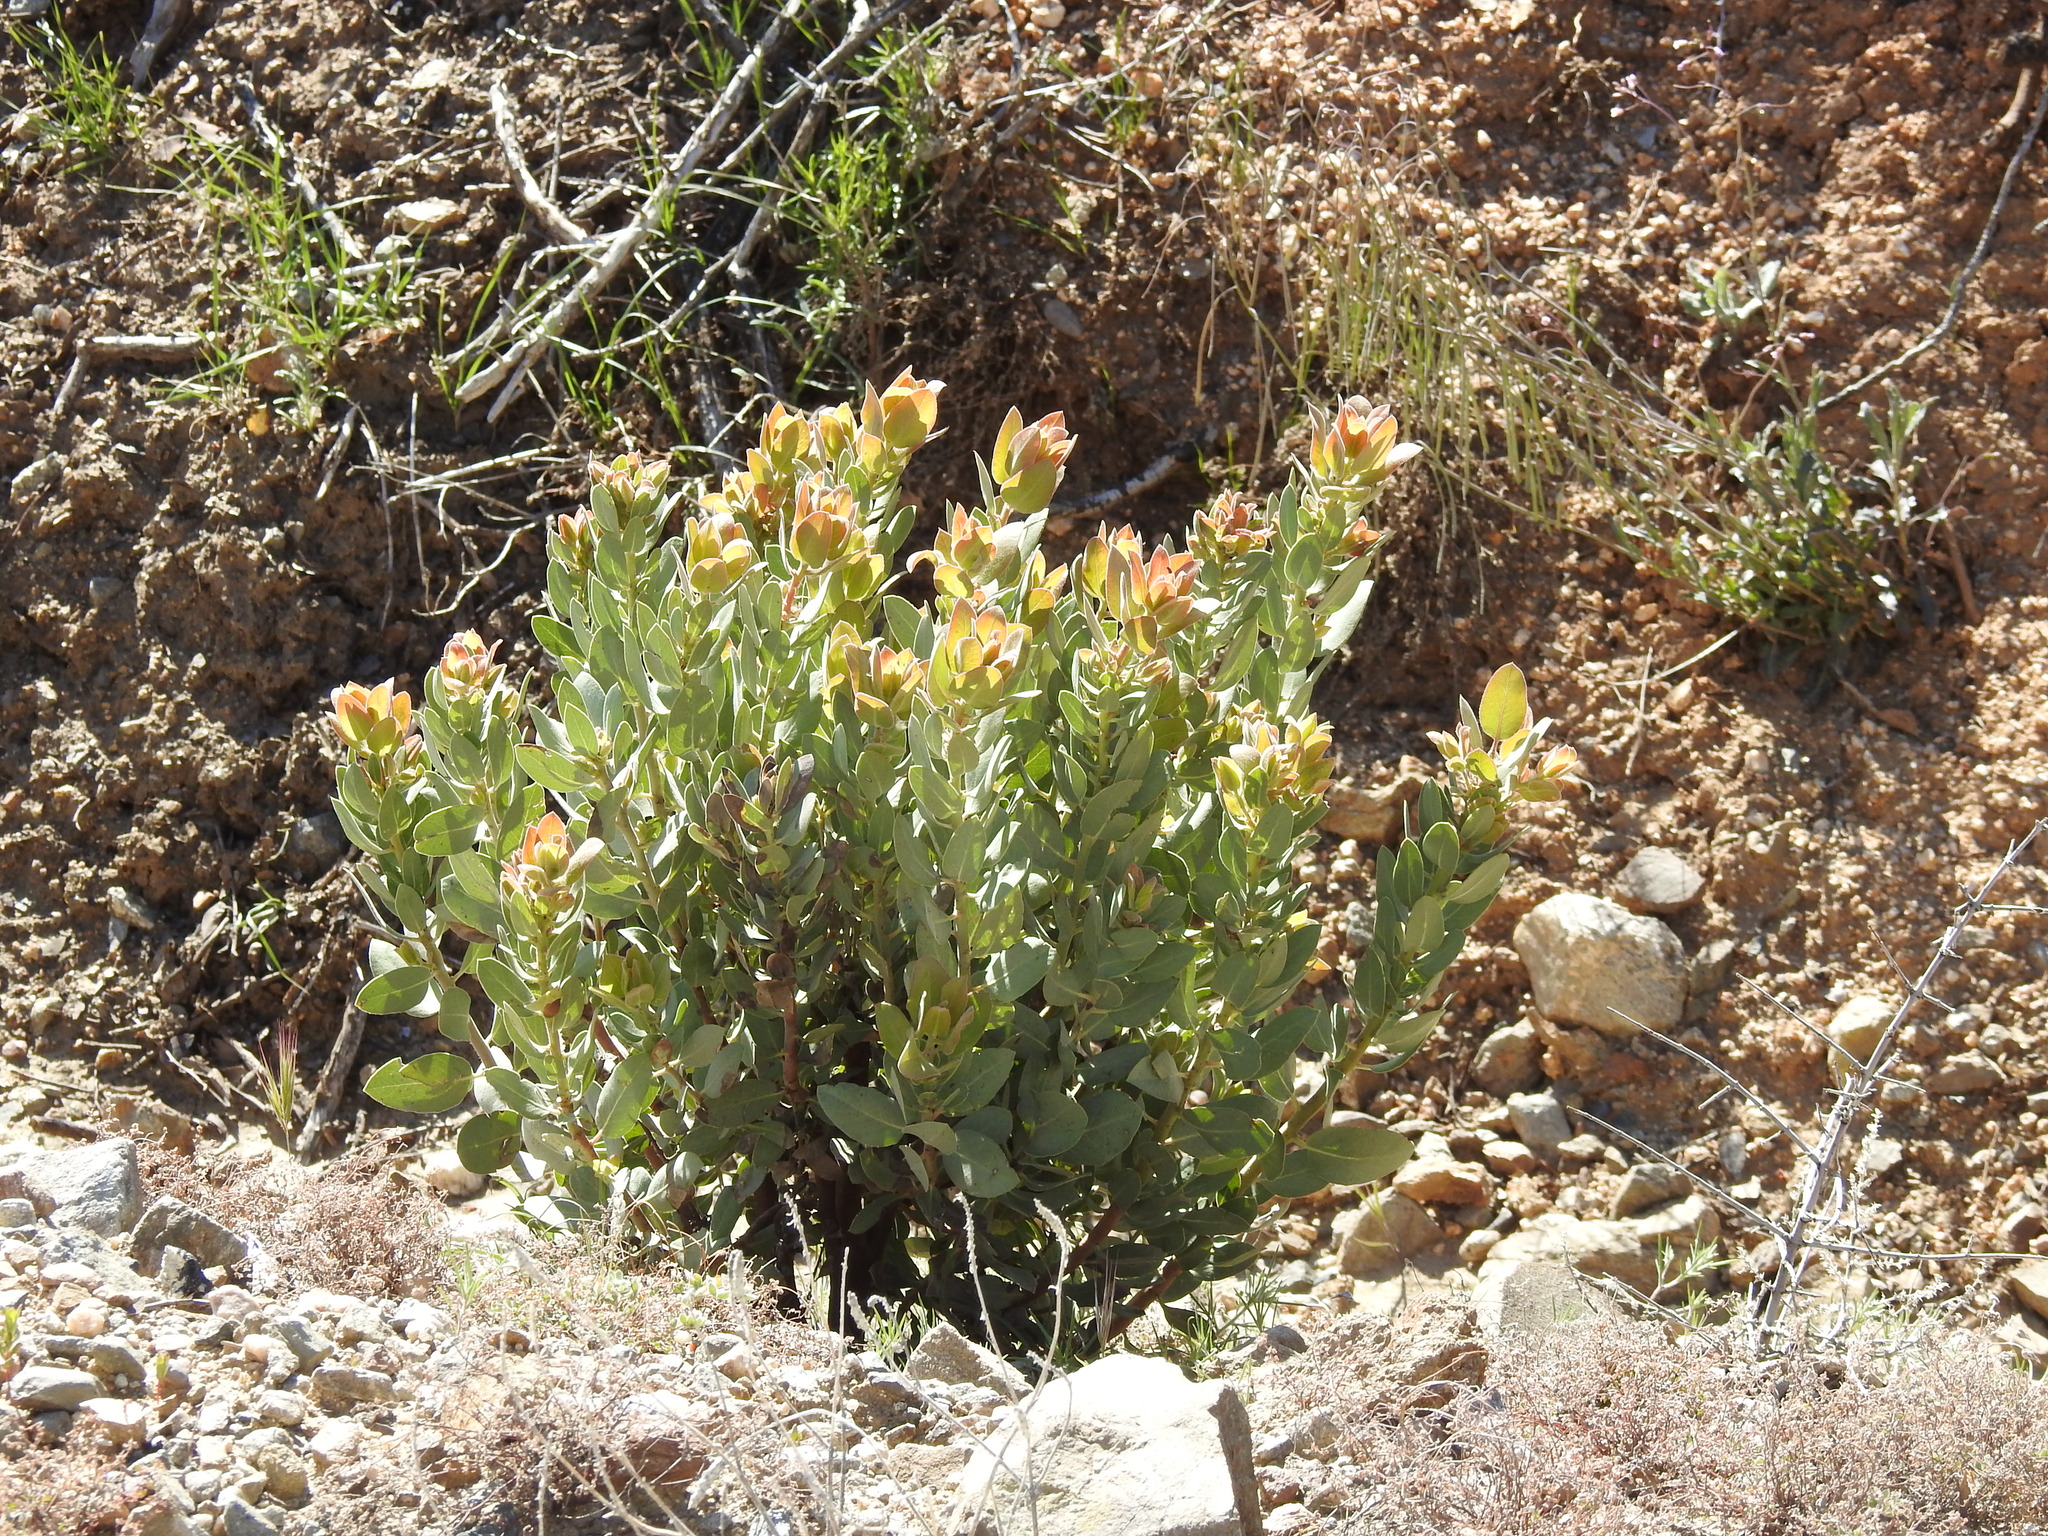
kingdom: Plantae
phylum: Tracheophyta
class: Magnoliopsida
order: Ericales
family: Ericaceae
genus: Arctostaphylos
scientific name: Arctostaphylos pringlei
